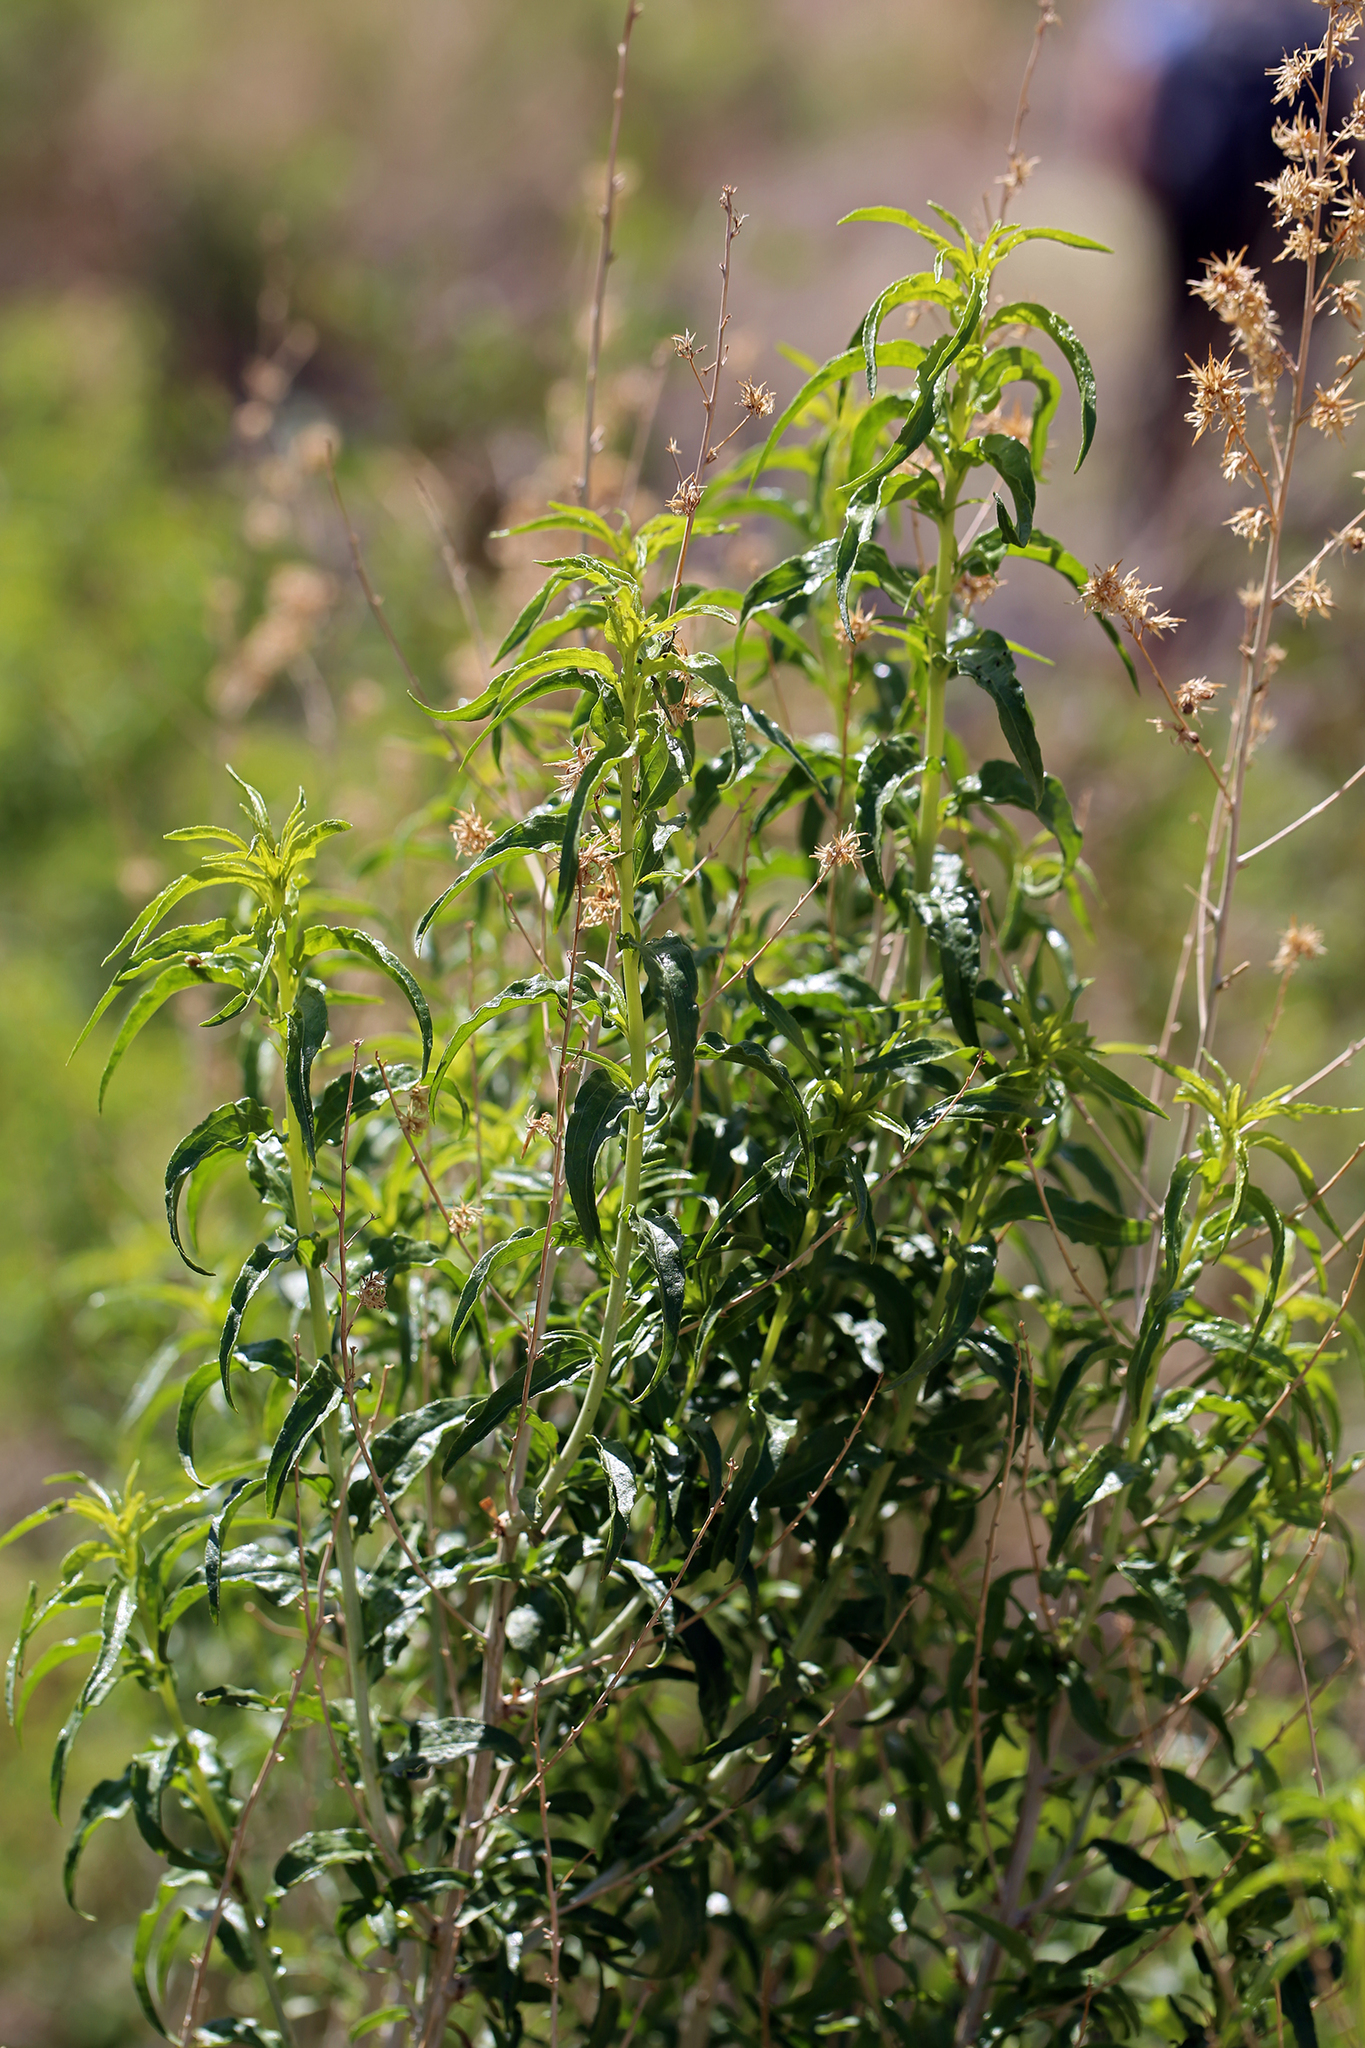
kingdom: Plantae
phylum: Tracheophyta
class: Magnoliopsida
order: Asterales
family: Asteraceae
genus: Brickellia
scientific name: Brickellia longifolia
